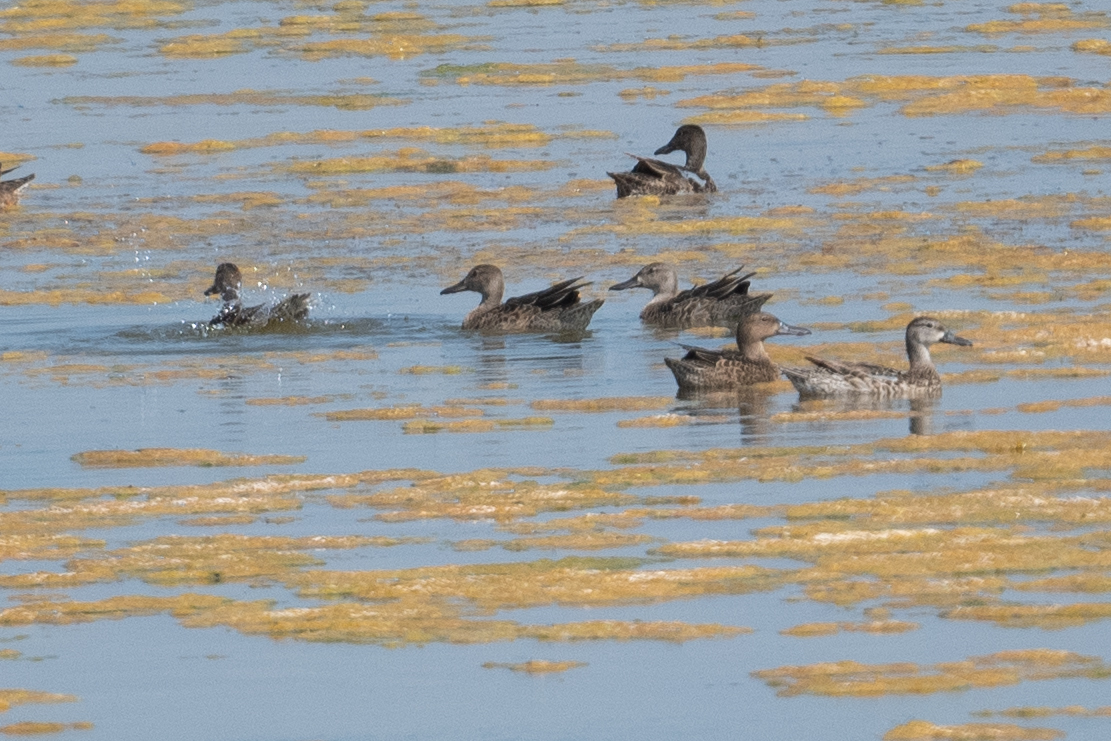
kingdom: Animalia
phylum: Chordata
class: Aves
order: Anseriformes
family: Anatidae
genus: Spatula
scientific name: Spatula cyanoptera
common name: Cinnamon teal
